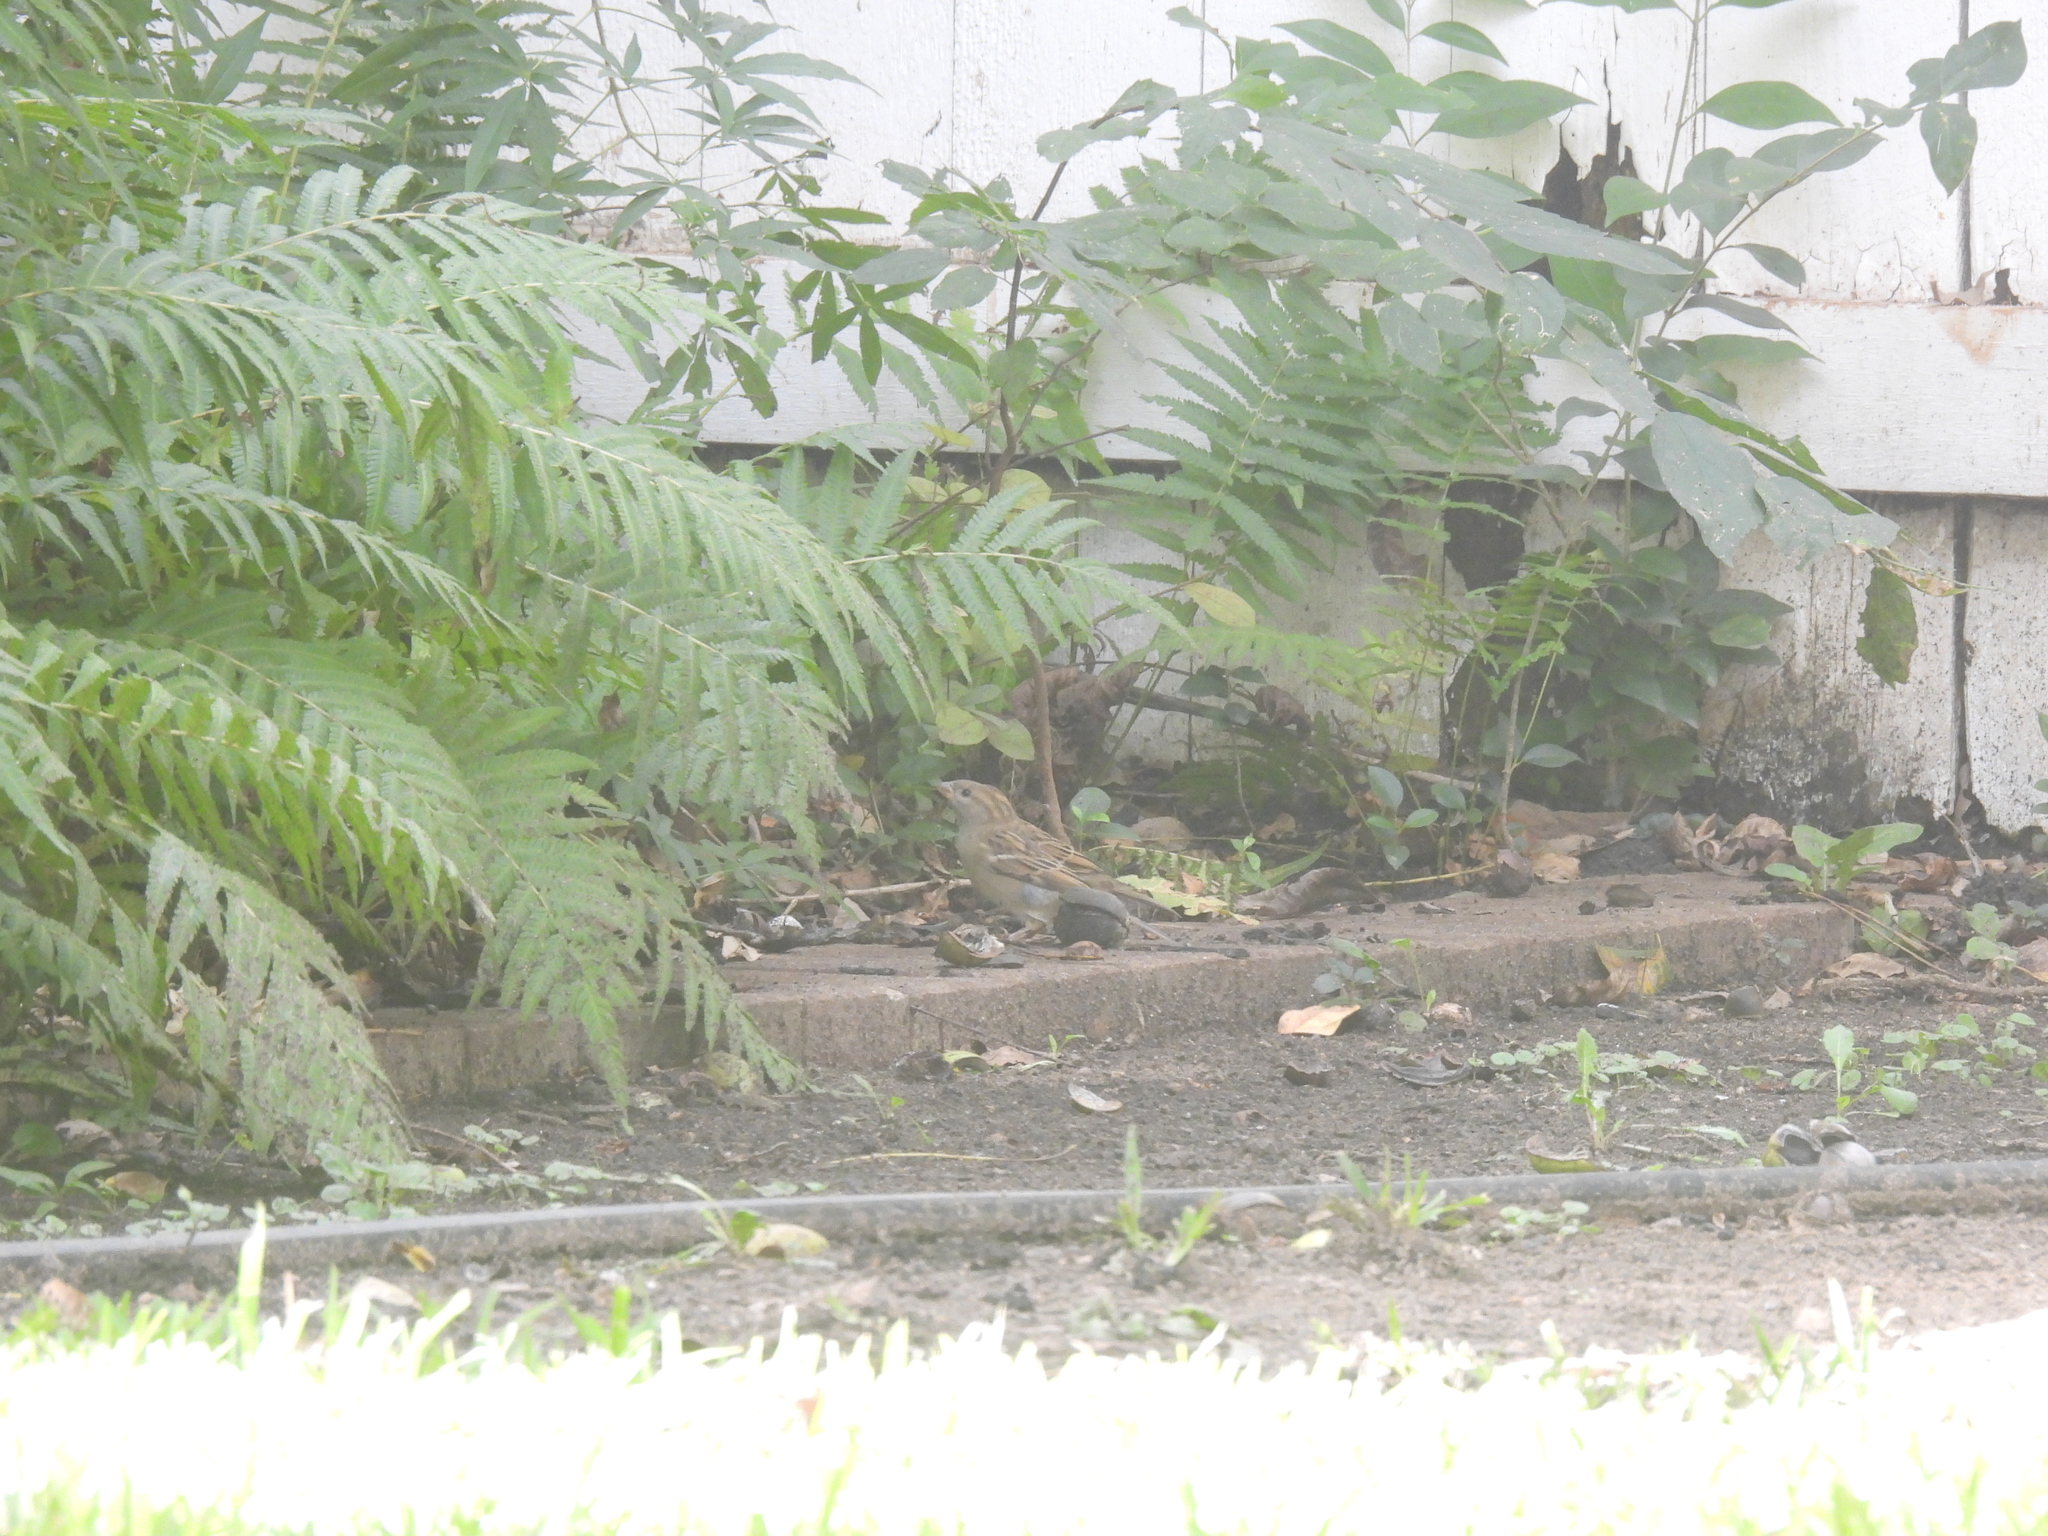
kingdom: Animalia
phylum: Chordata
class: Aves
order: Passeriformes
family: Passeridae
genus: Passer
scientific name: Passer domesticus
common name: House sparrow
